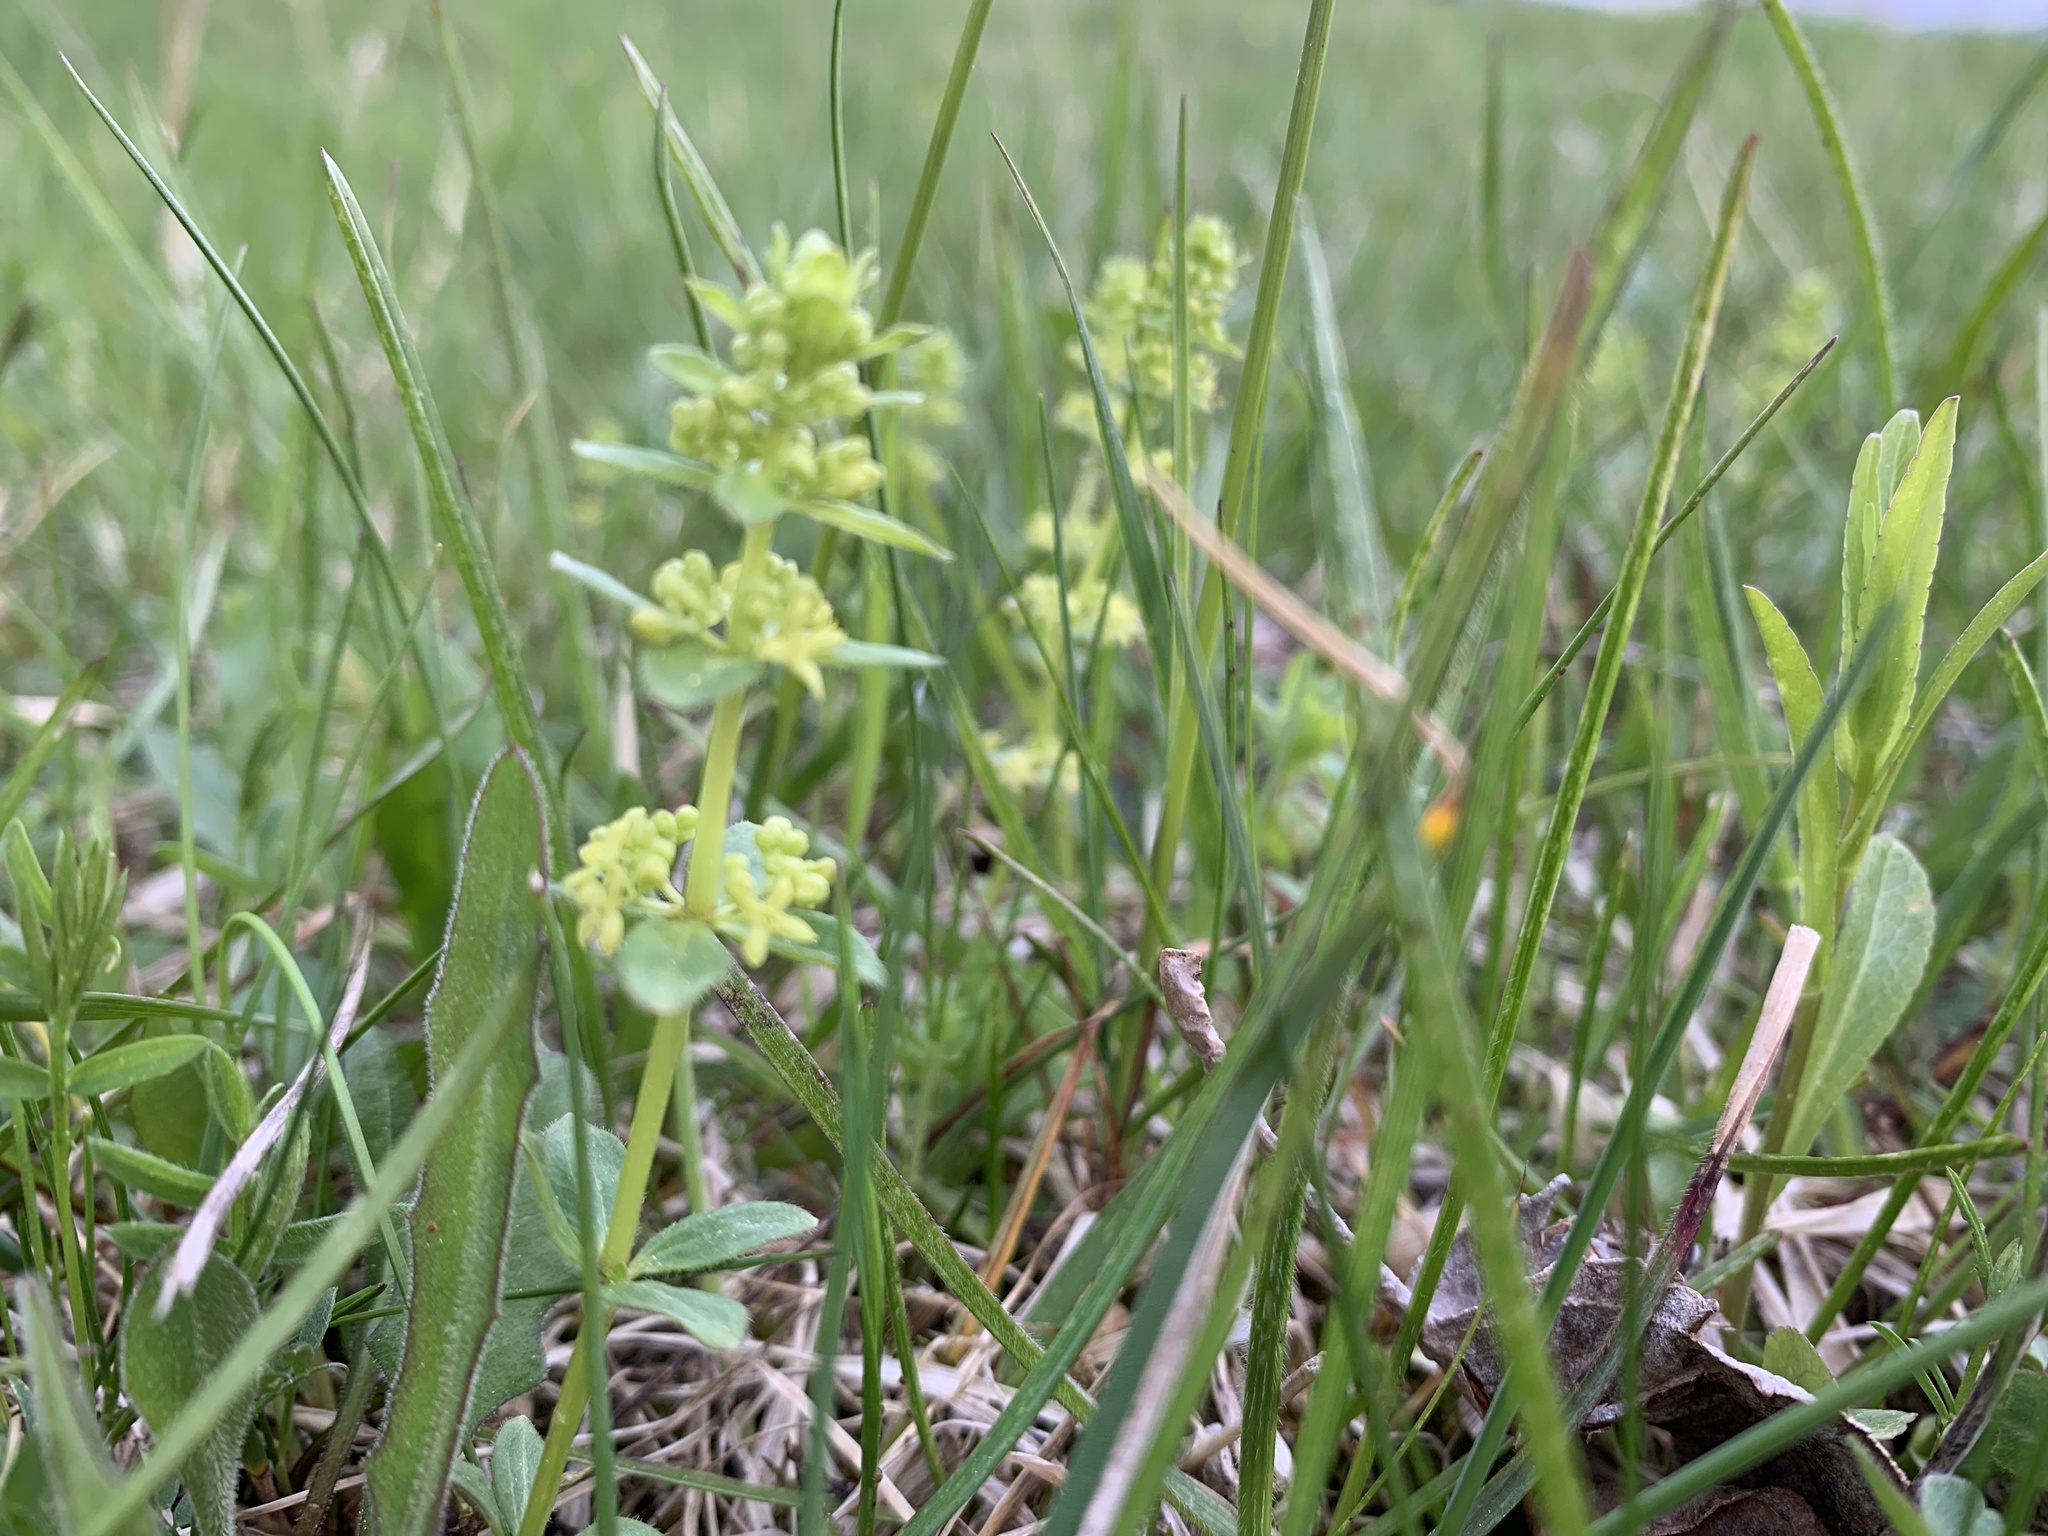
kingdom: Plantae
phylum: Tracheophyta
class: Magnoliopsida
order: Gentianales
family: Rubiaceae
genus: Cruciata
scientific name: Cruciata glabra
